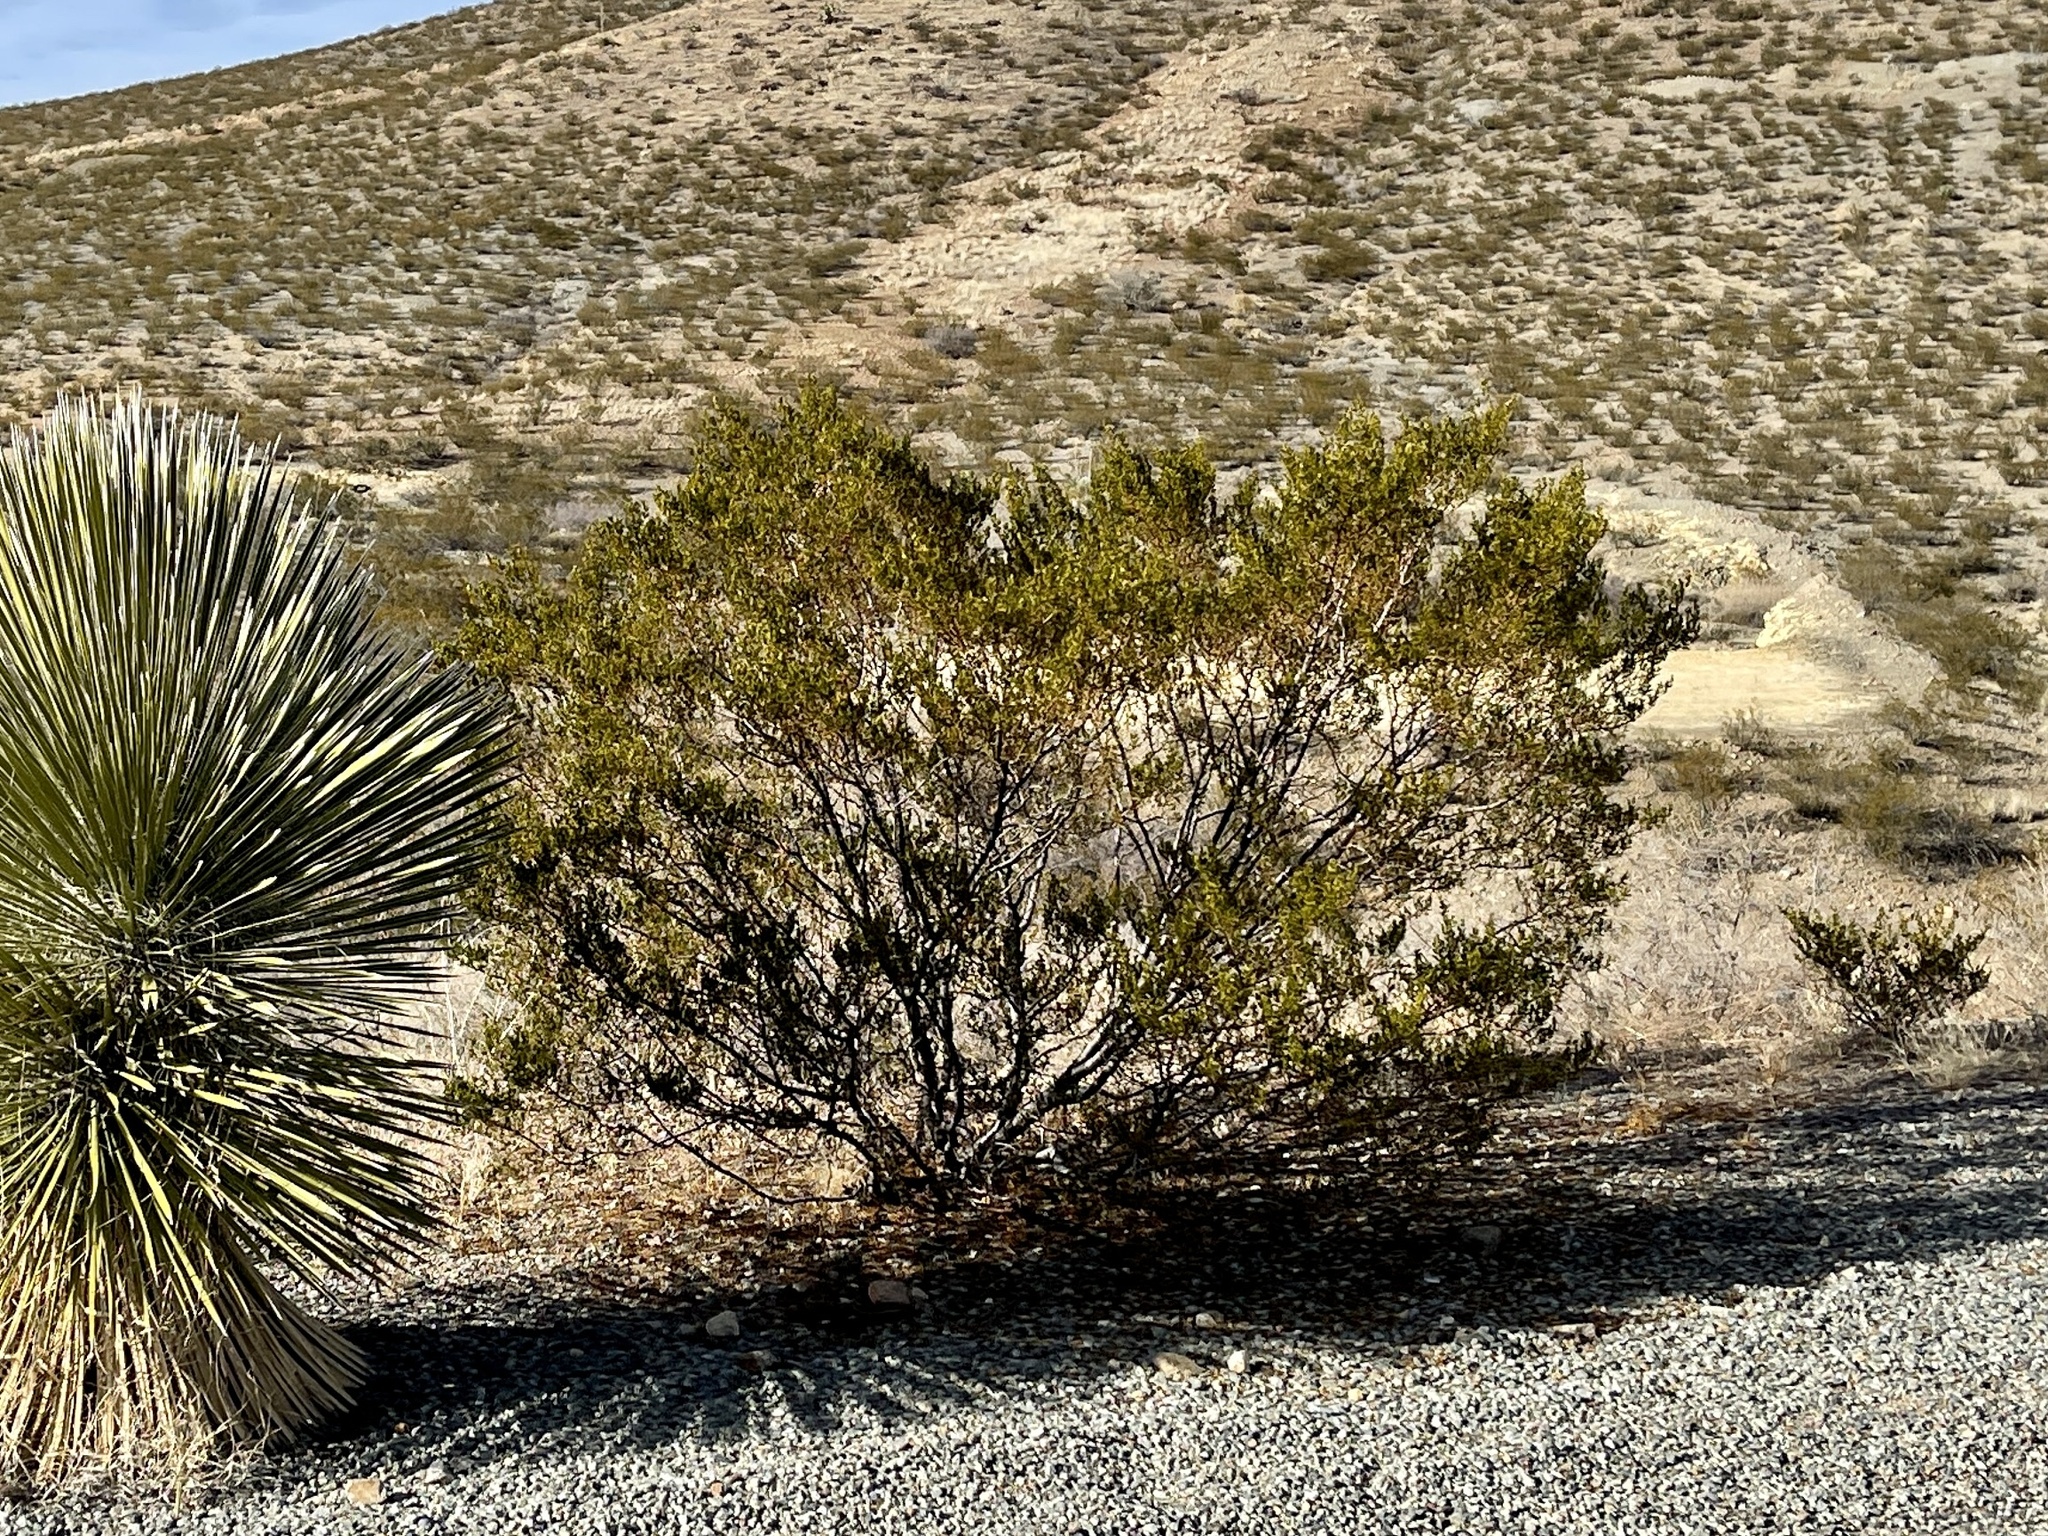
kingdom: Plantae
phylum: Tracheophyta
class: Magnoliopsida
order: Zygophyllales
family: Zygophyllaceae
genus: Larrea
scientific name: Larrea tridentata
